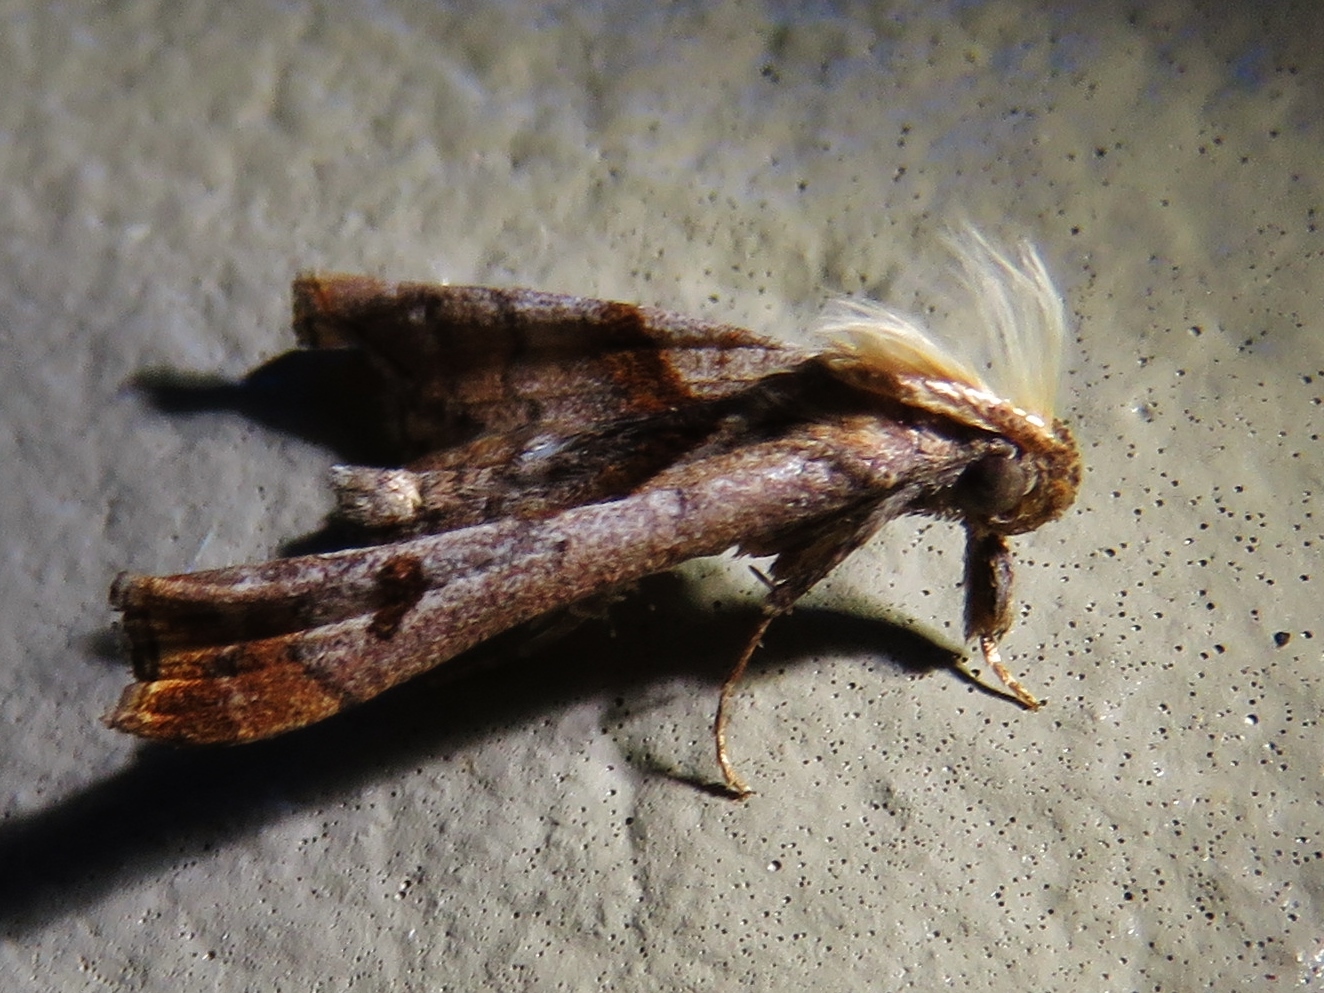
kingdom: Animalia
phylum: Arthropoda
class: Insecta
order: Lepidoptera
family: Erebidae
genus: Palthis
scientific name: Palthis angulalis
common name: Dark-spotted palthis moth
